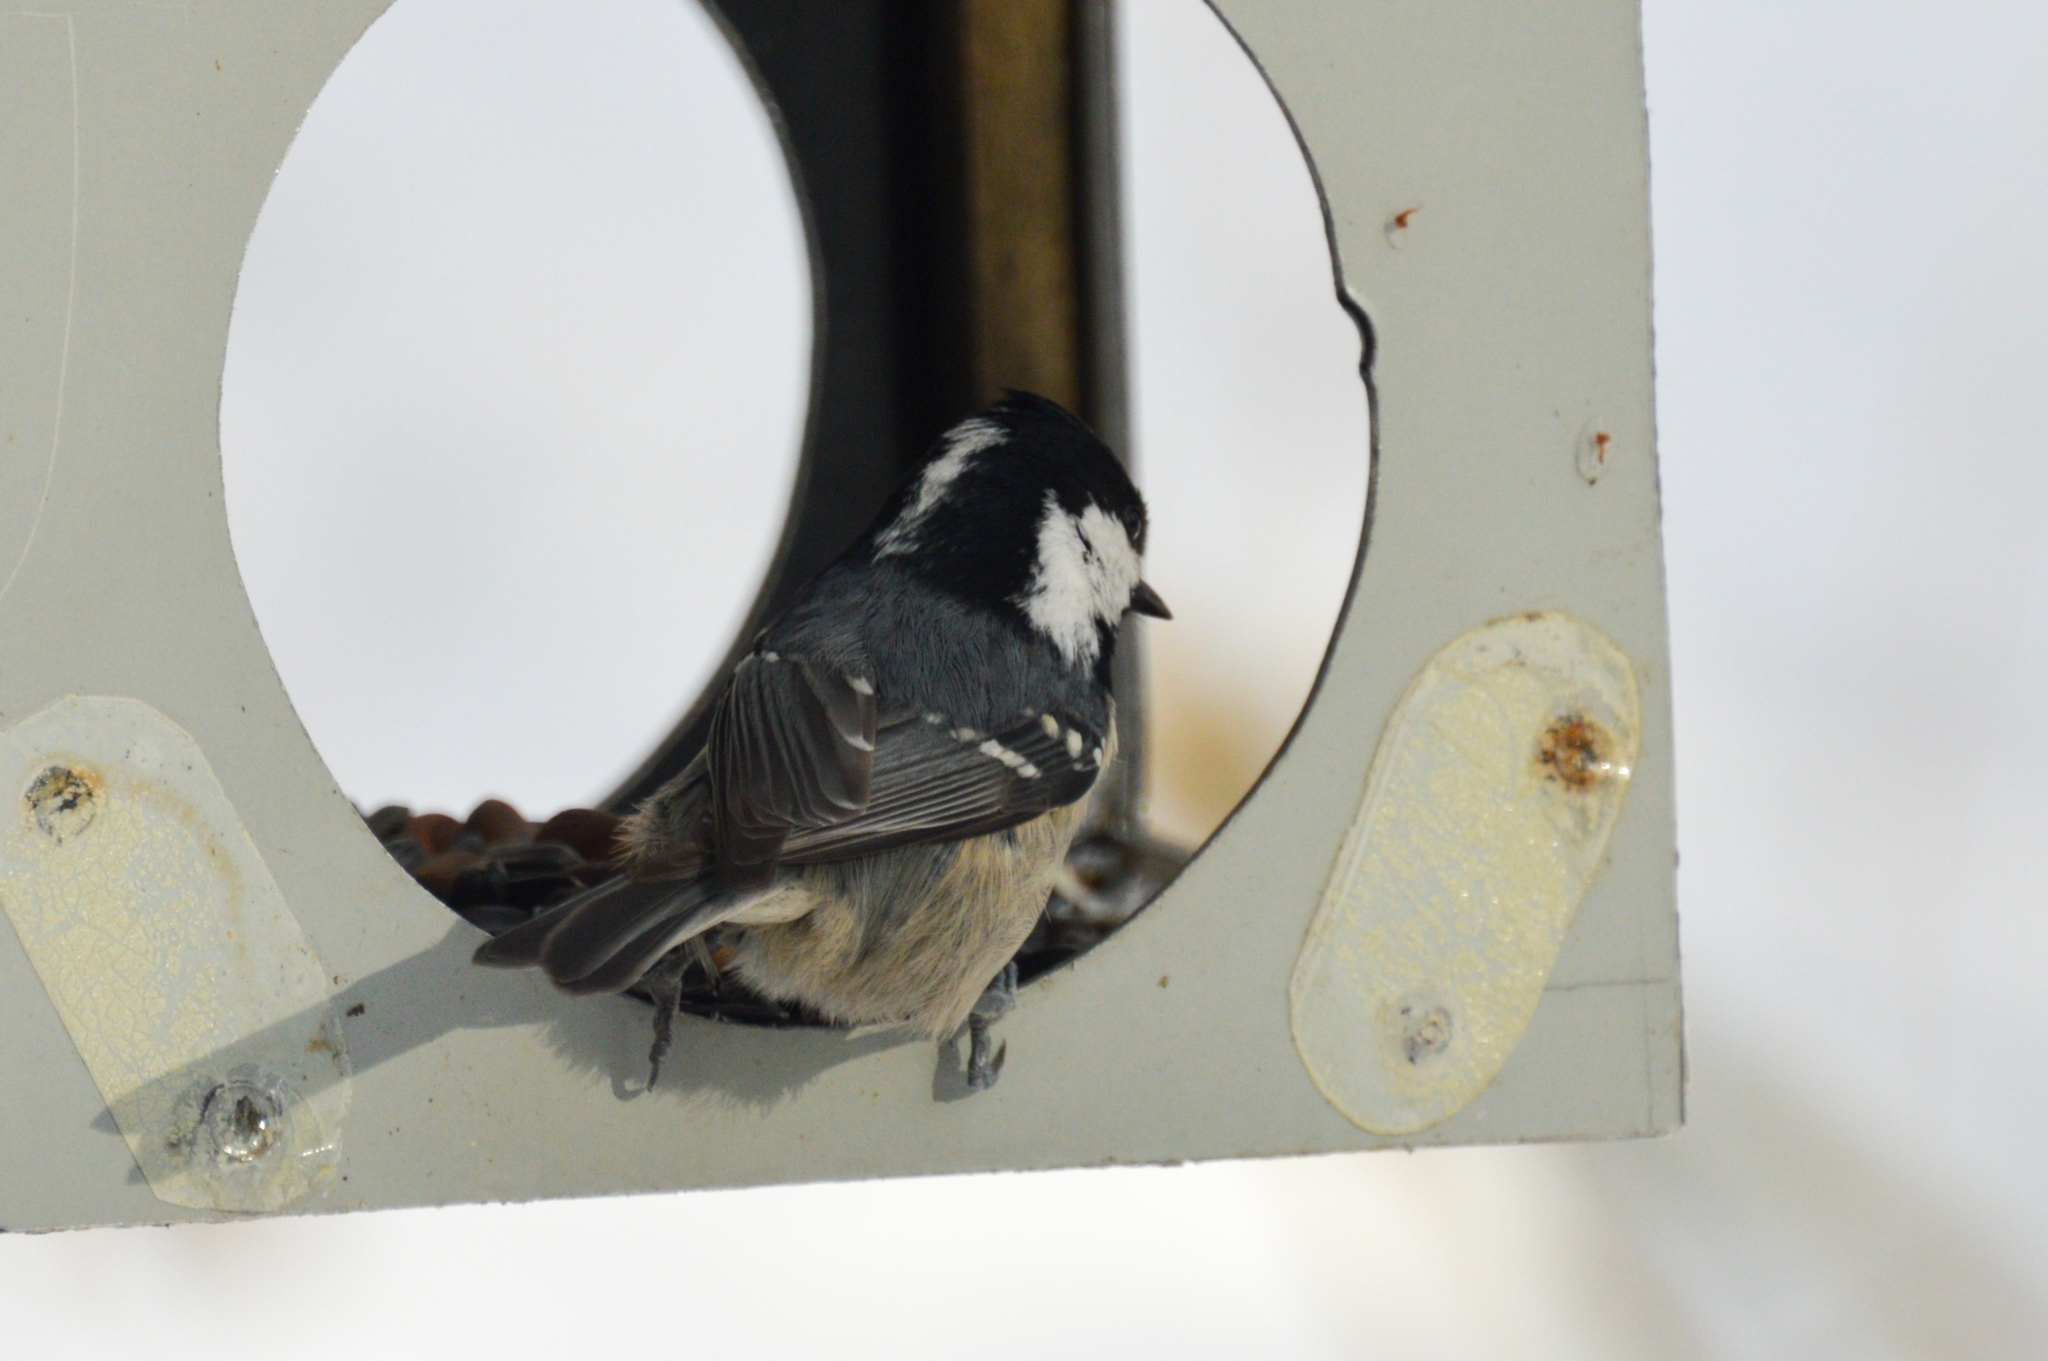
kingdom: Animalia
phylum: Chordata
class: Aves
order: Passeriformes
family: Paridae
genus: Periparus
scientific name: Periparus ater
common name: Coal tit
